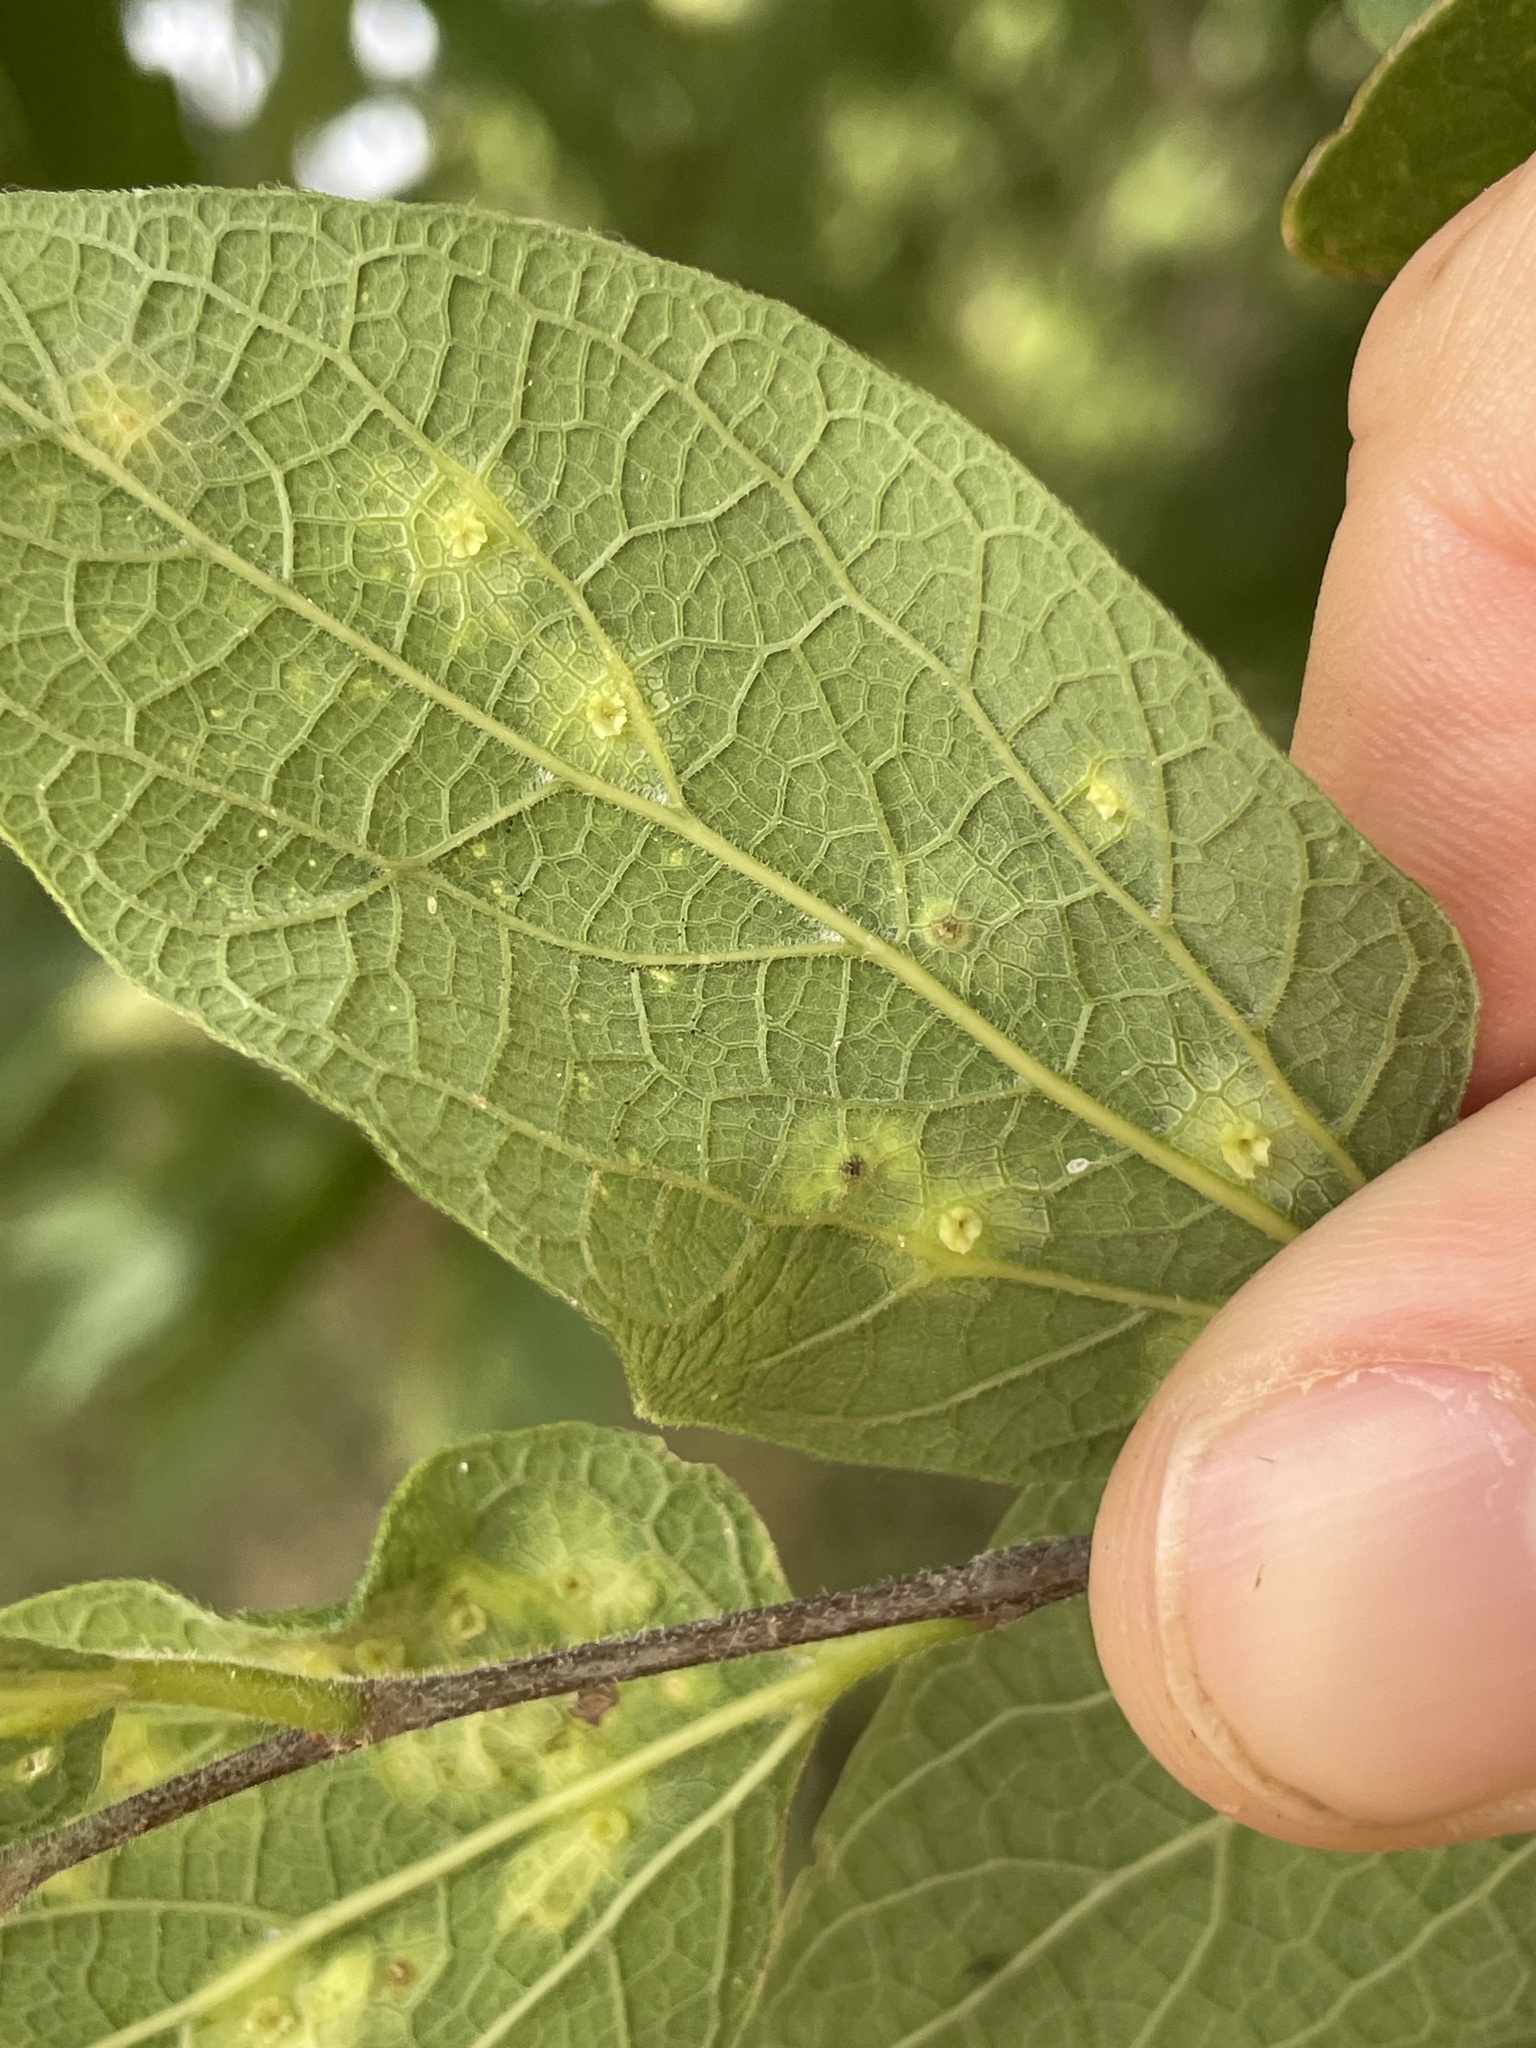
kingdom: Animalia
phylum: Arthropoda
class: Insecta
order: Hemiptera
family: Aphalaridae
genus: Pachypsylla
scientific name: Pachypsylla celtidisasterisca
